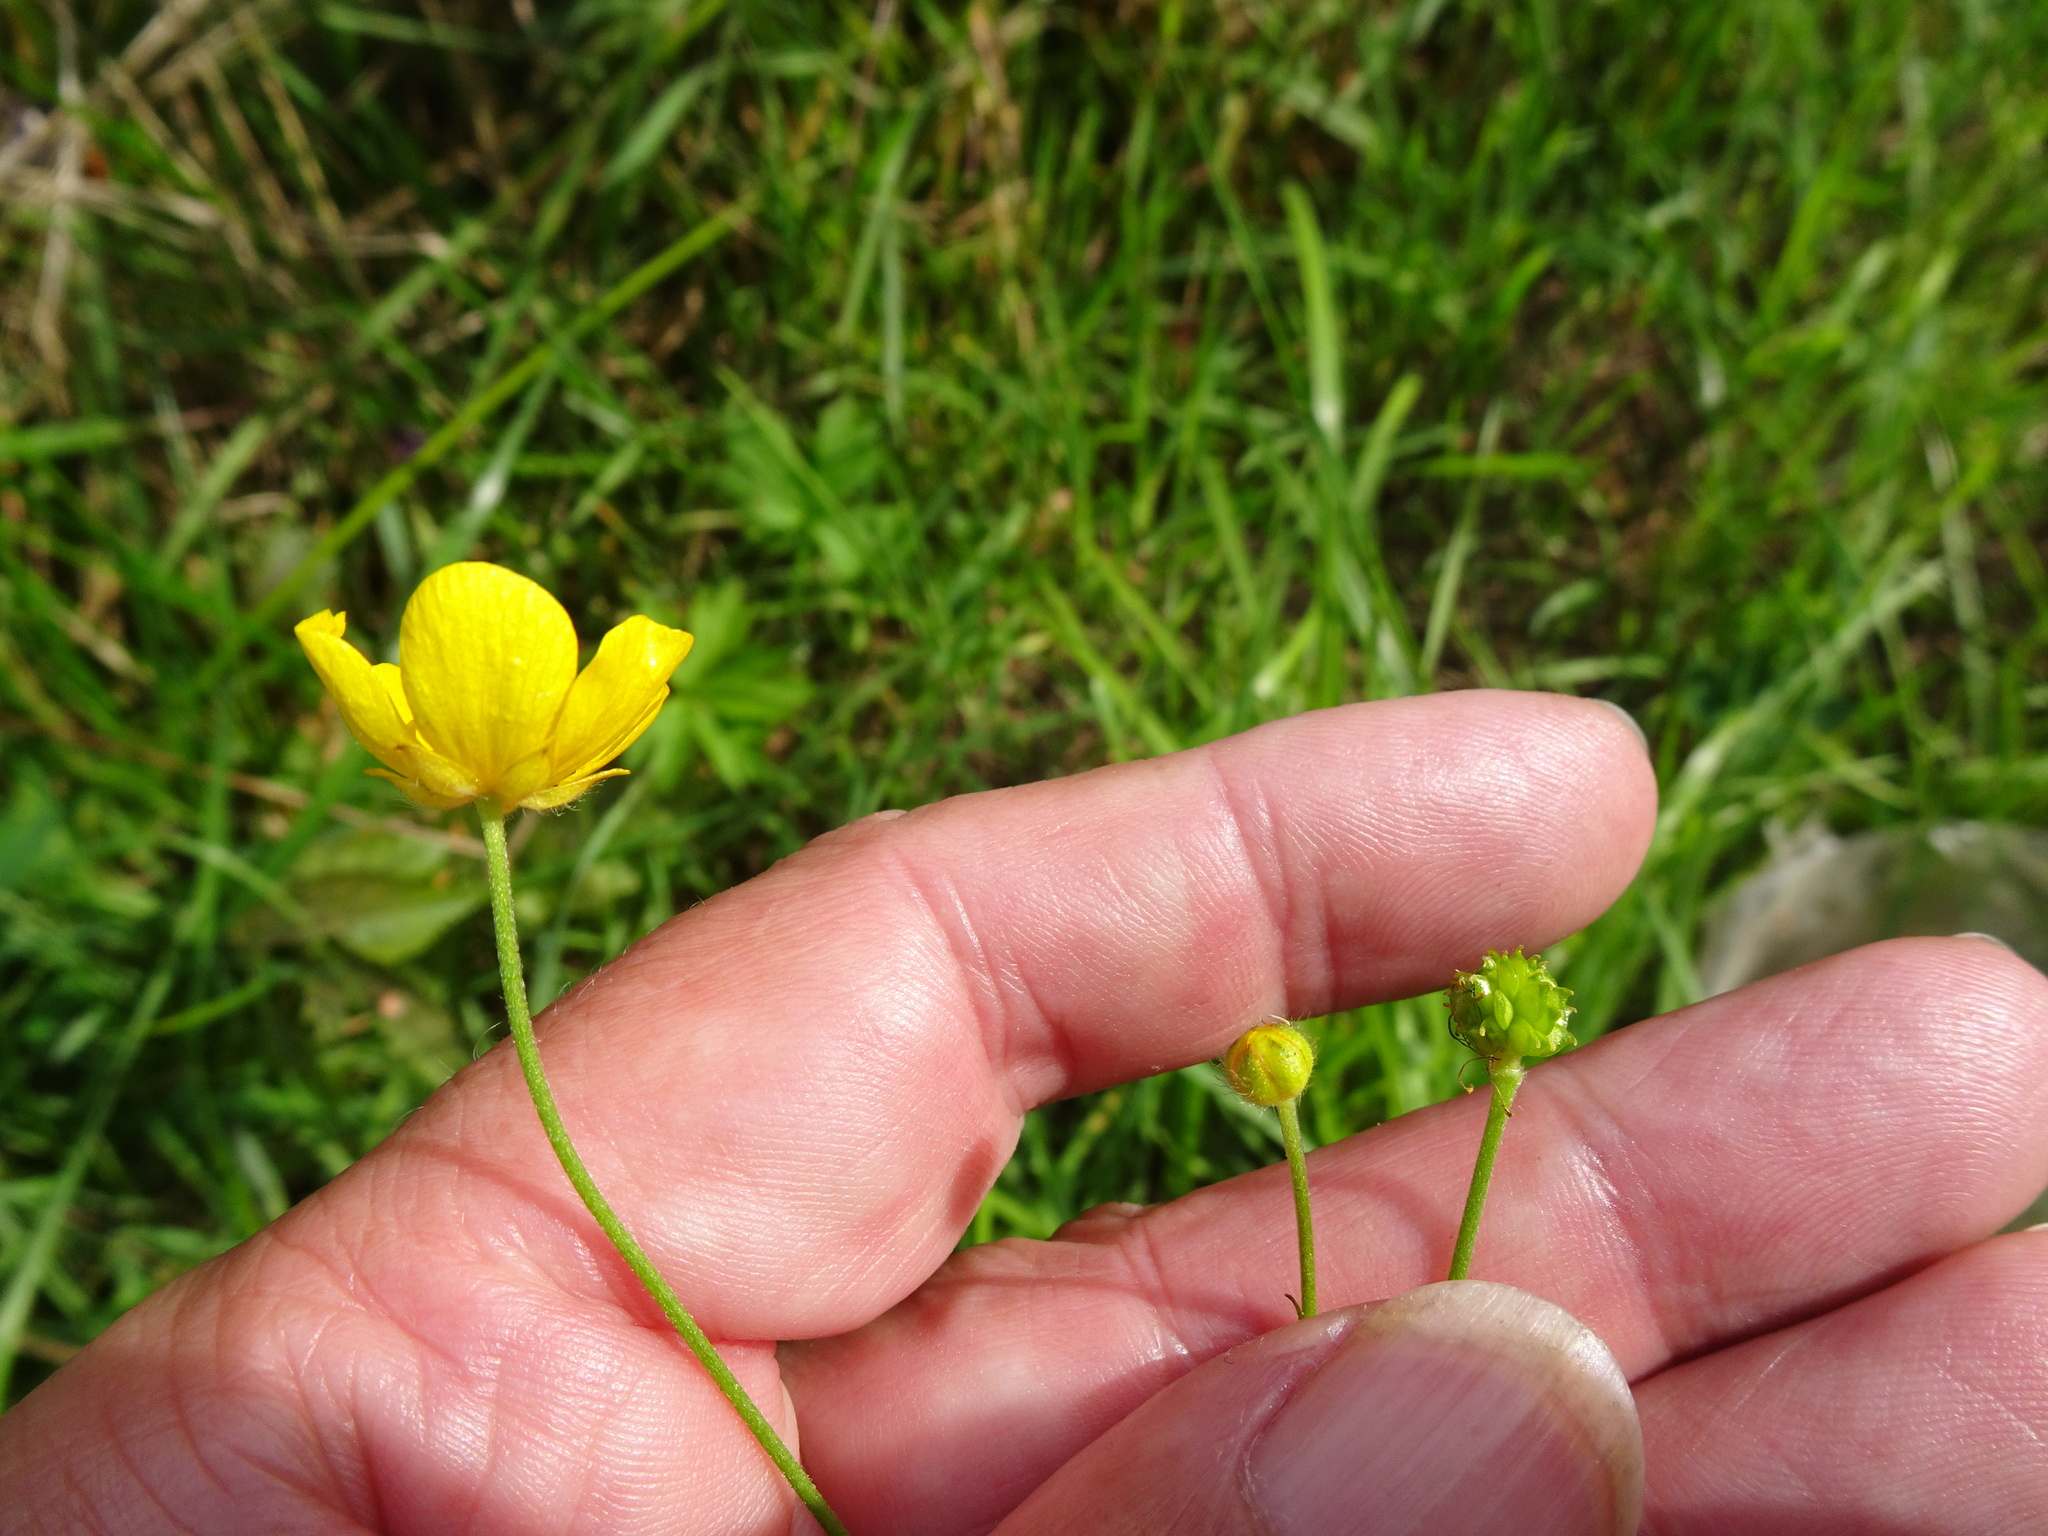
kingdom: Plantae
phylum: Tracheophyta
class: Magnoliopsida
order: Ranunculales
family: Ranunculaceae
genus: Ranunculus
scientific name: Ranunculus acris
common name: Meadow buttercup
